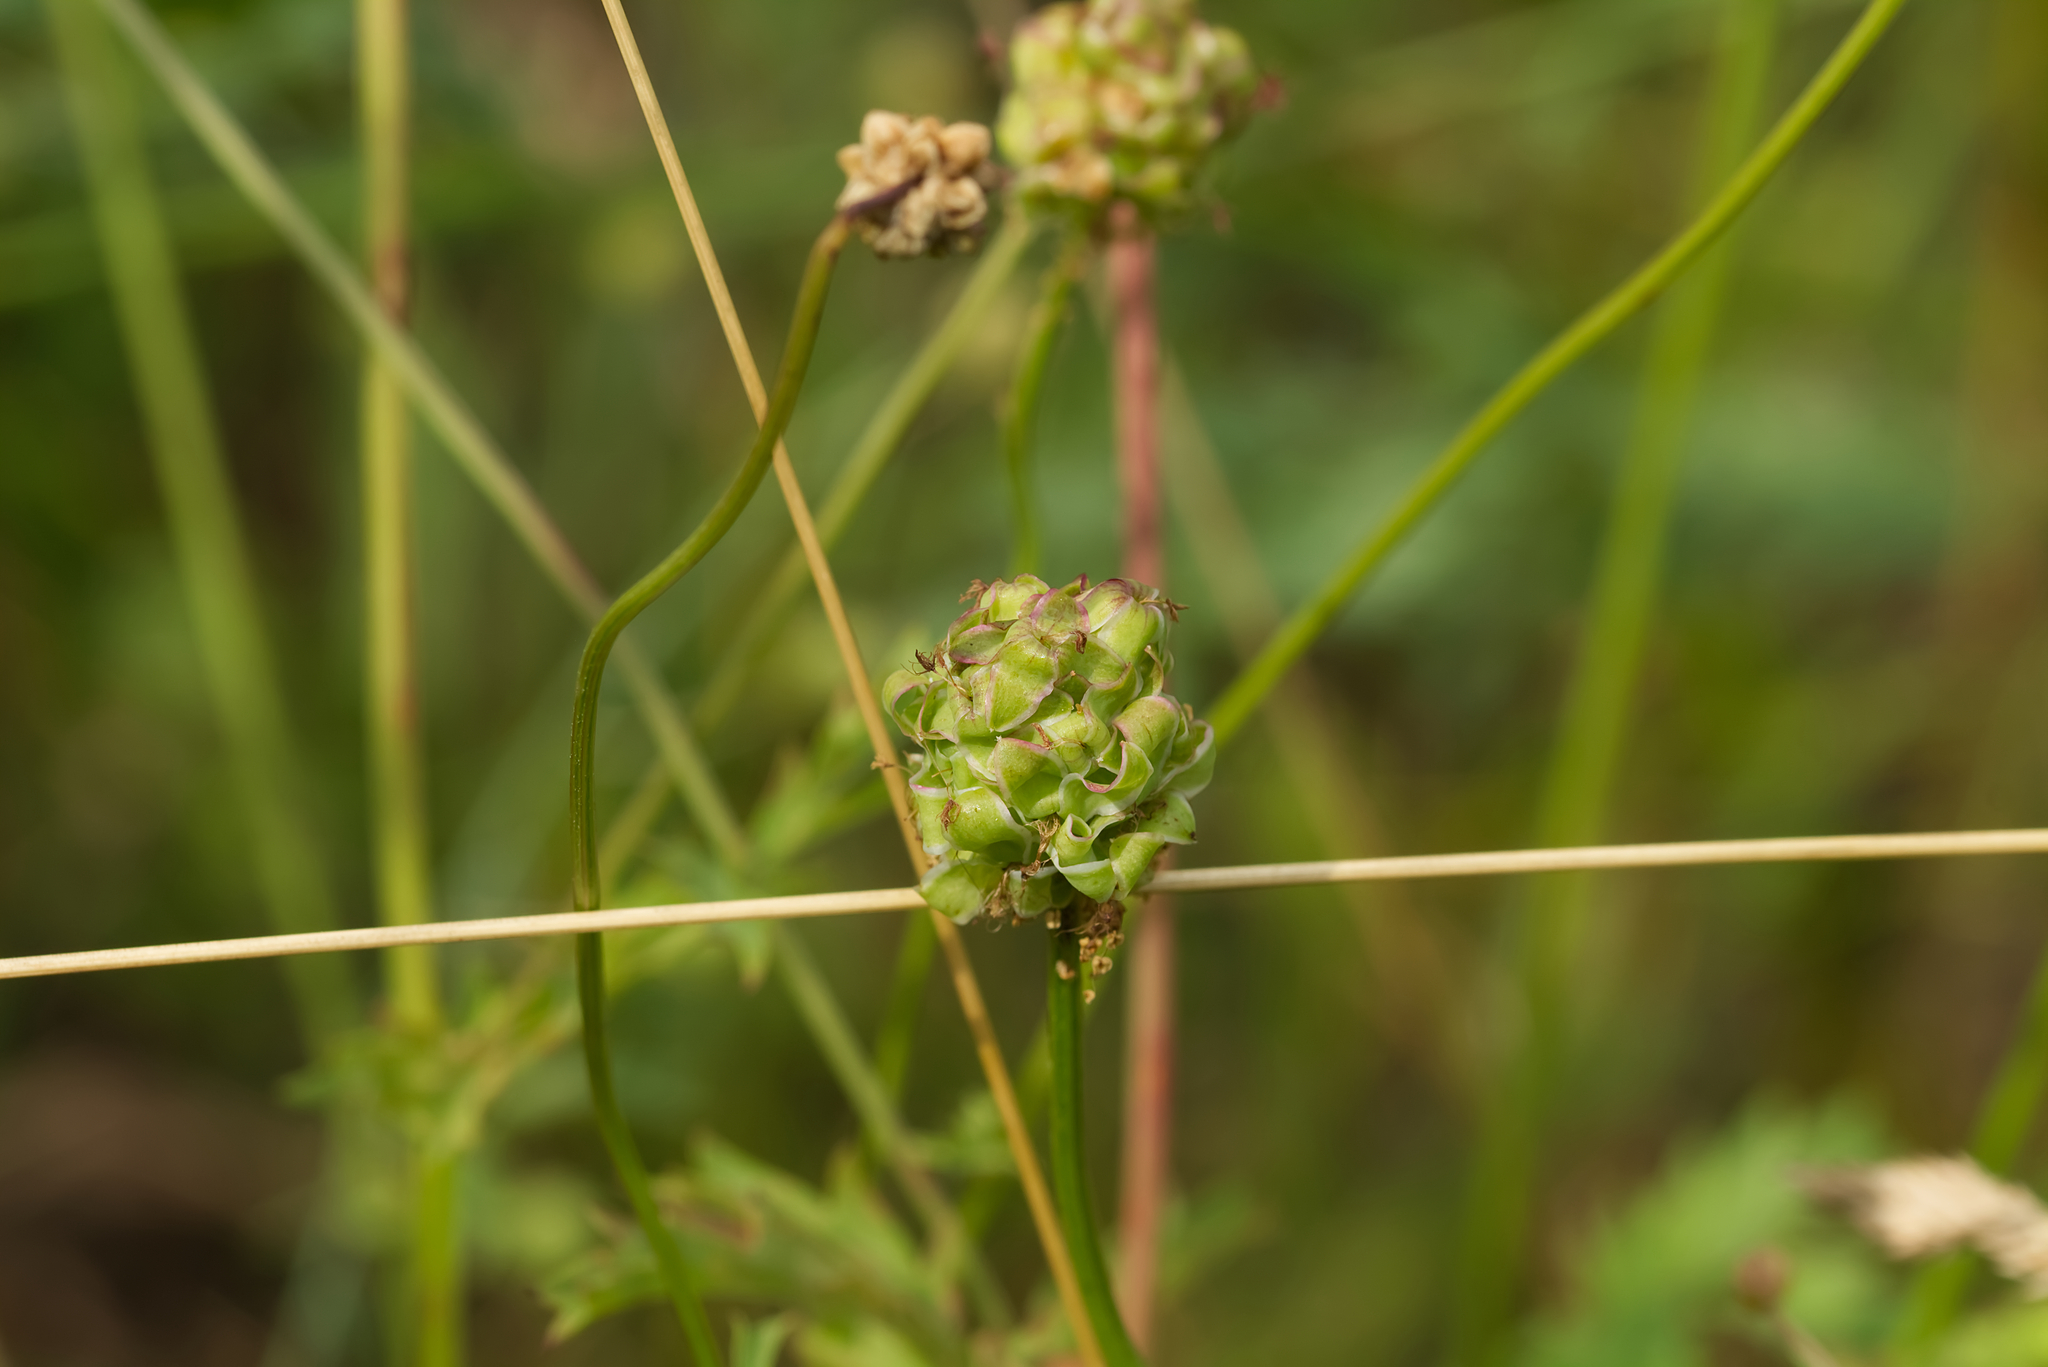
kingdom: Plantae
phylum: Tracheophyta
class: Magnoliopsida
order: Rosales
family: Rosaceae
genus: Poterium
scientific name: Poterium sanguisorba
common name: Salad burnet
